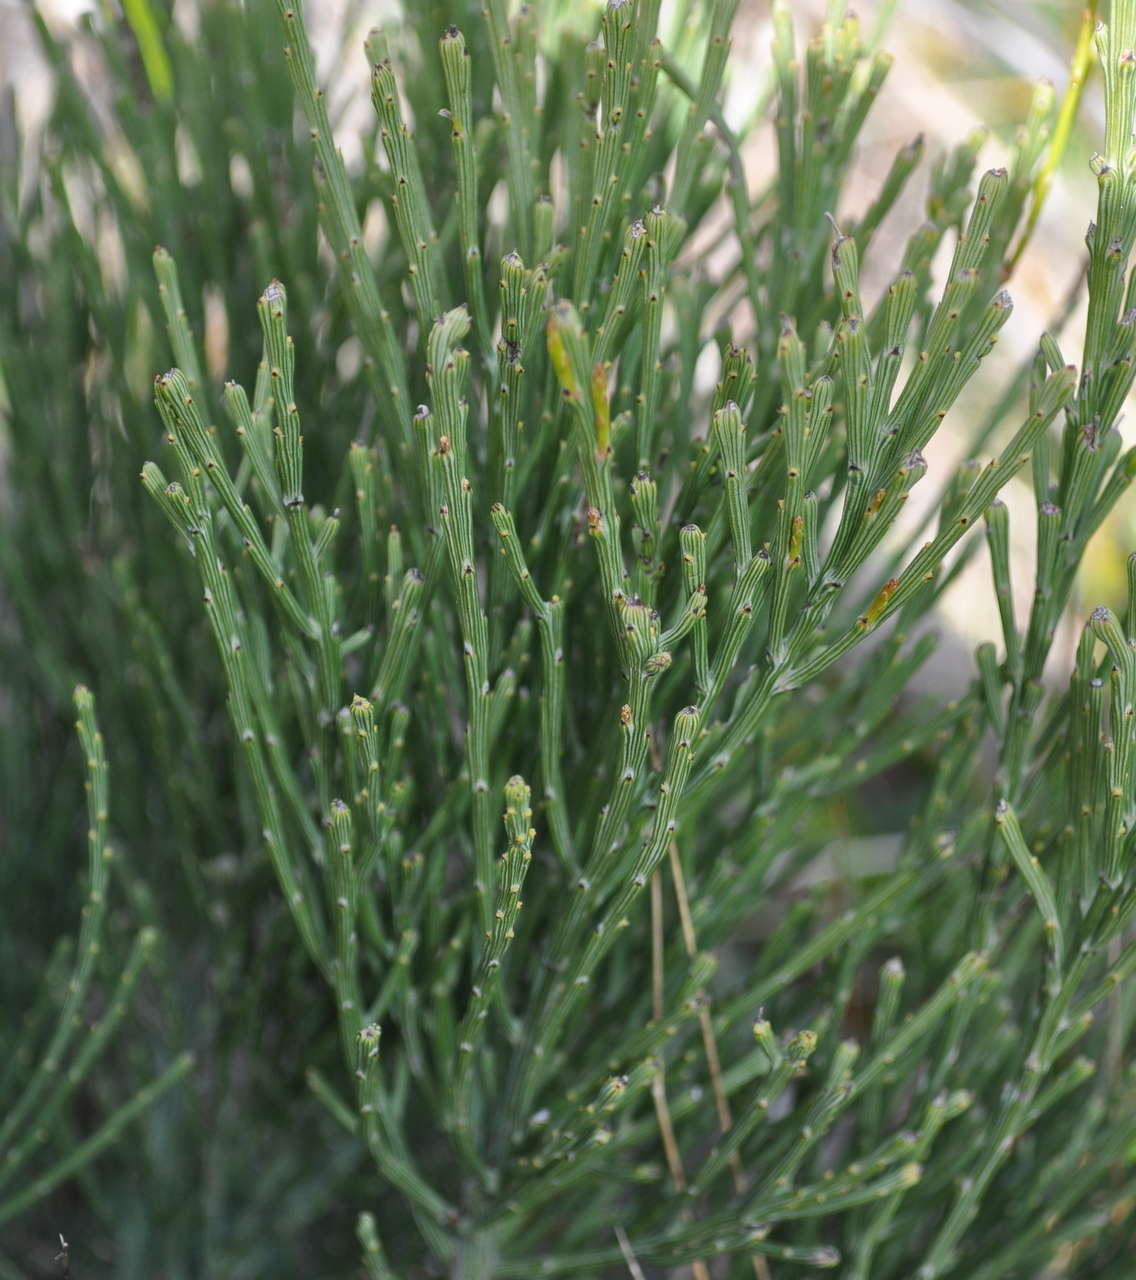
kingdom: Plantae
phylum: Tracheophyta
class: Magnoliopsida
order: Santalales
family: Santalaceae
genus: Exocarpos
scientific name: Exocarpos syrticola
